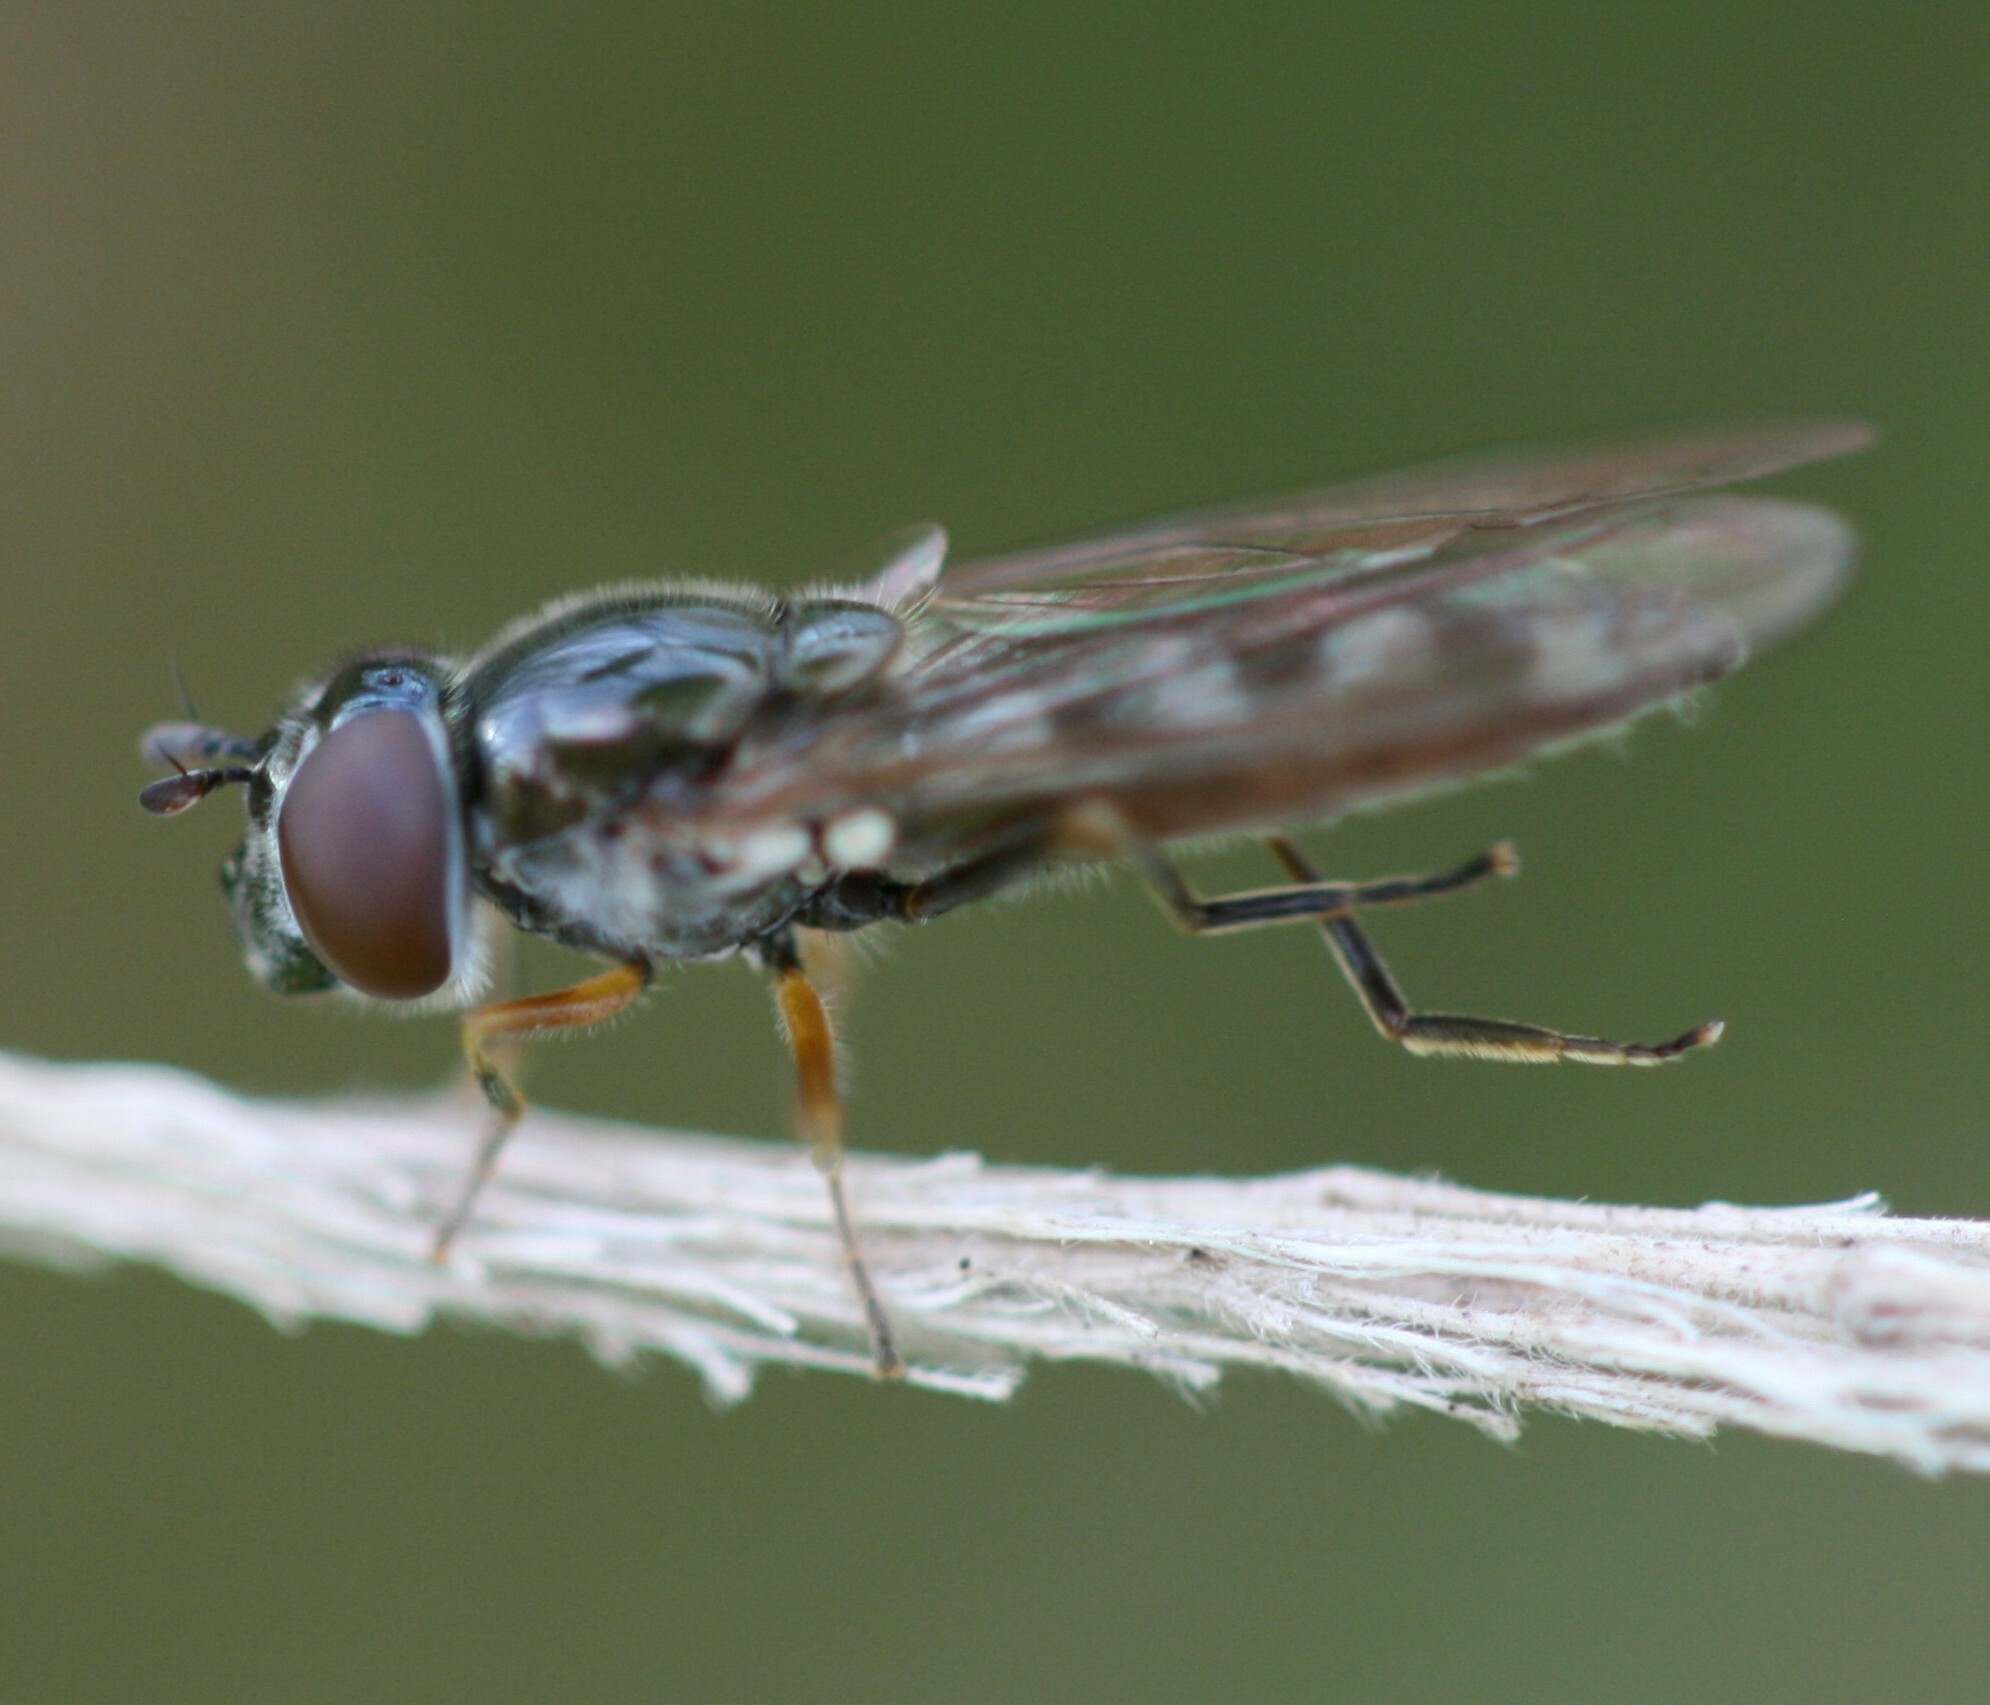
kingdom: Animalia
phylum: Arthropoda
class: Insecta
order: Diptera
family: Syrphidae
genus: Platycheirus
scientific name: Platycheirus albimanus
